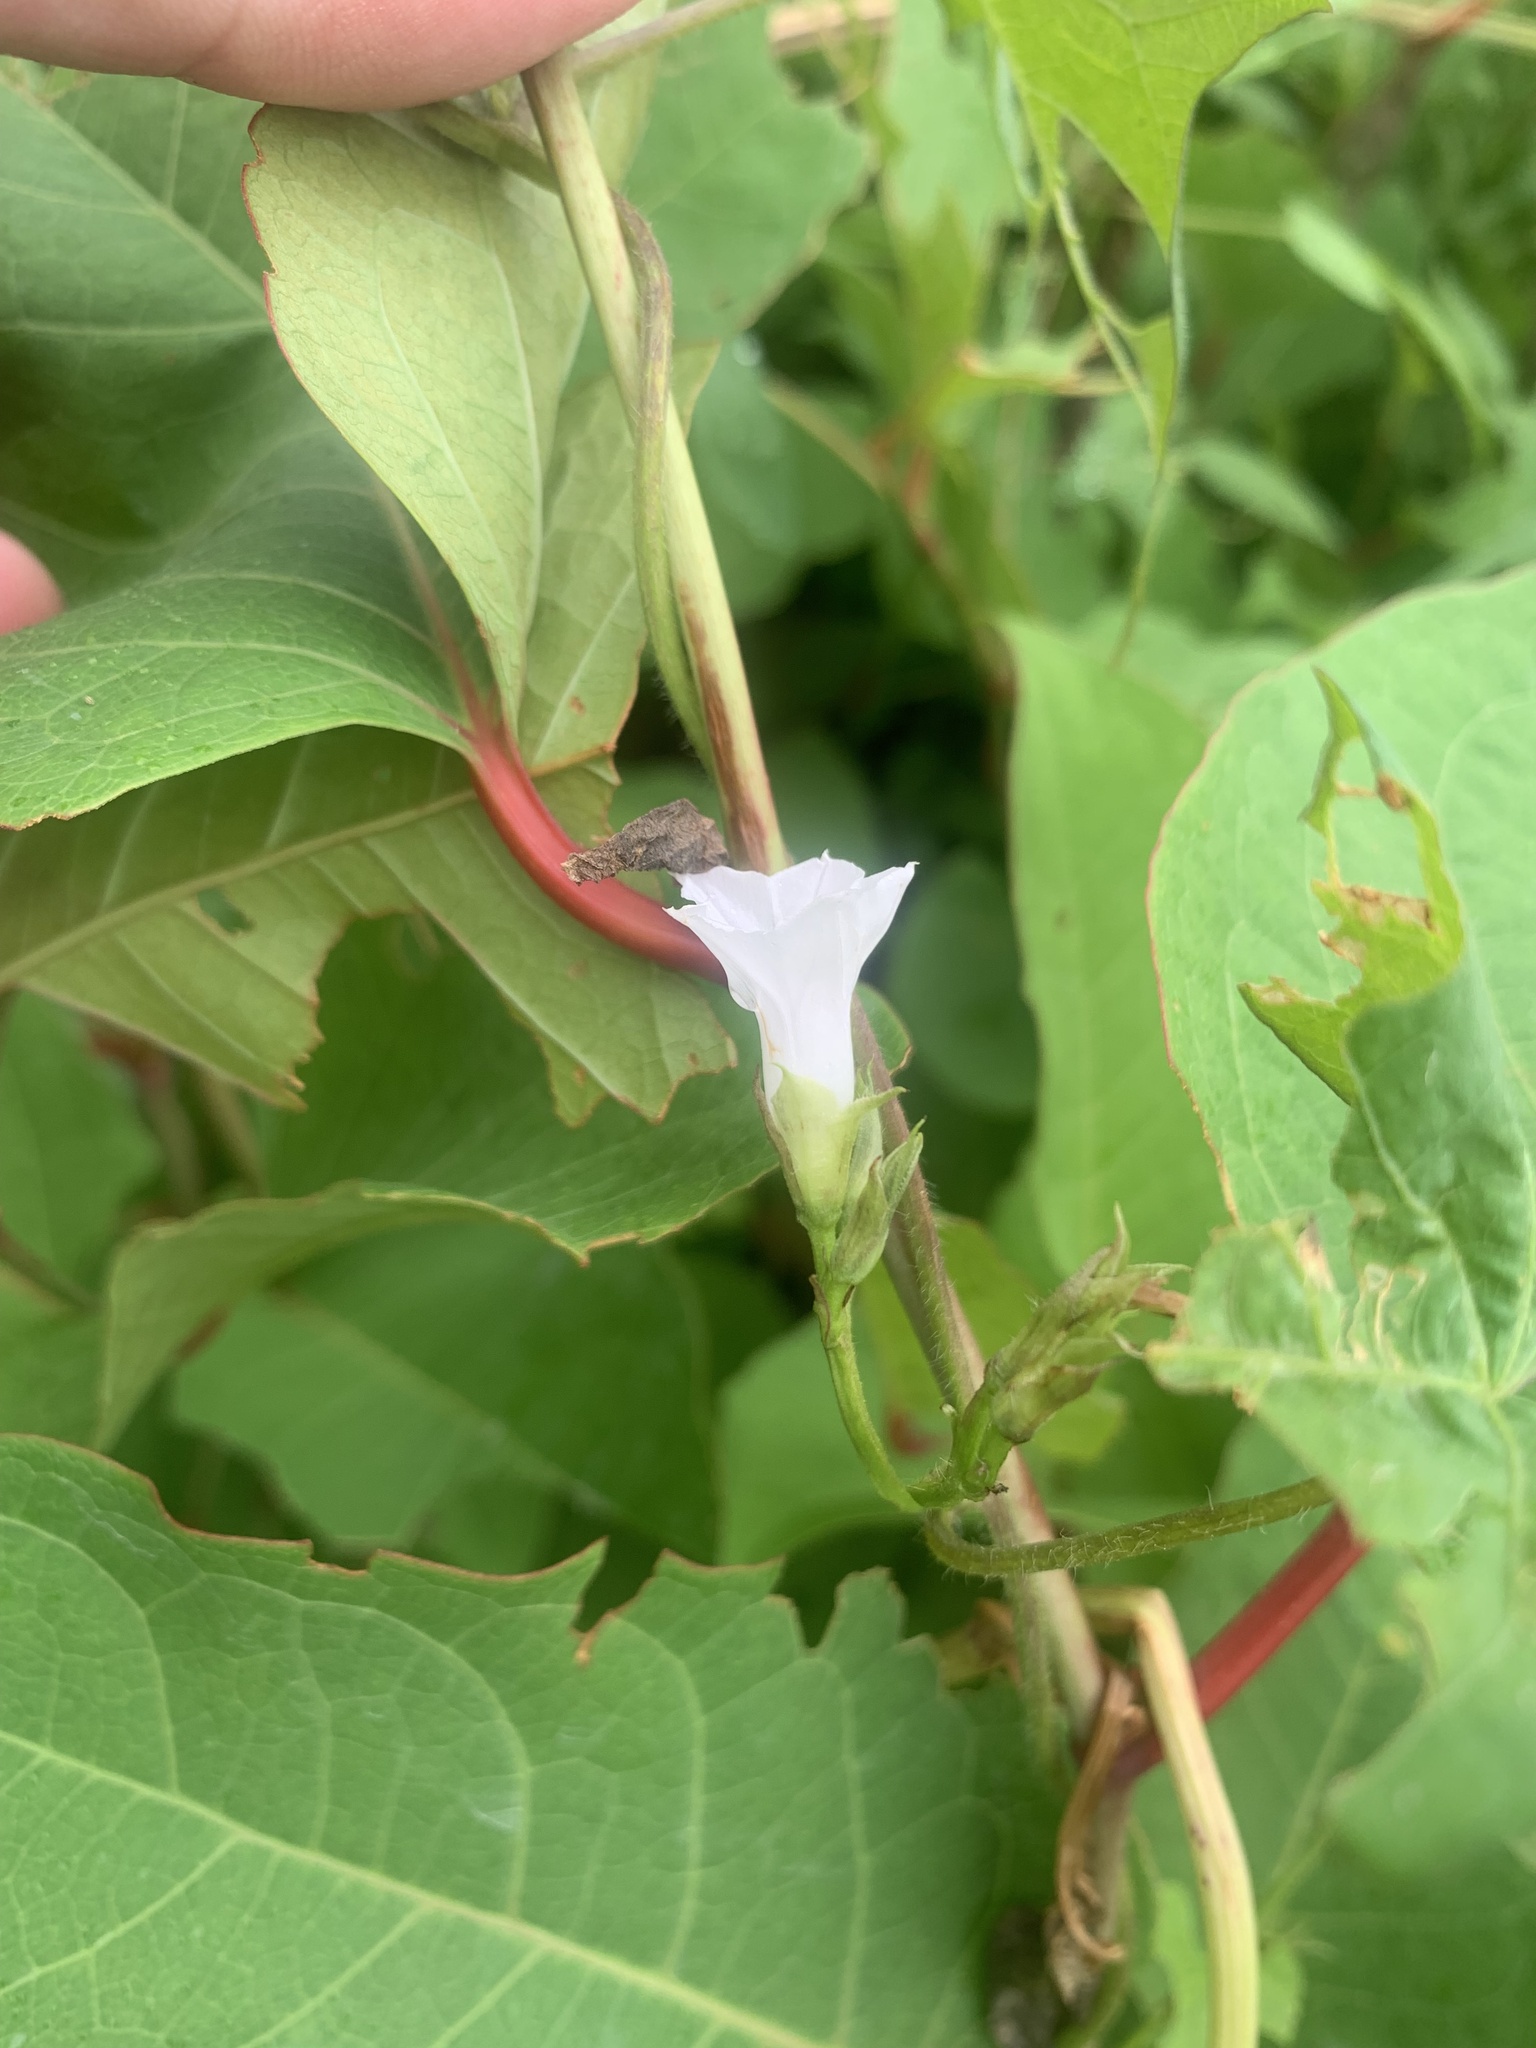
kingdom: Plantae
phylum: Tracheophyta
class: Magnoliopsida
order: Solanales
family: Convolvulaceae
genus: Ipomoea
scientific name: Ipomoea lacunosa
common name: White morning-glory
